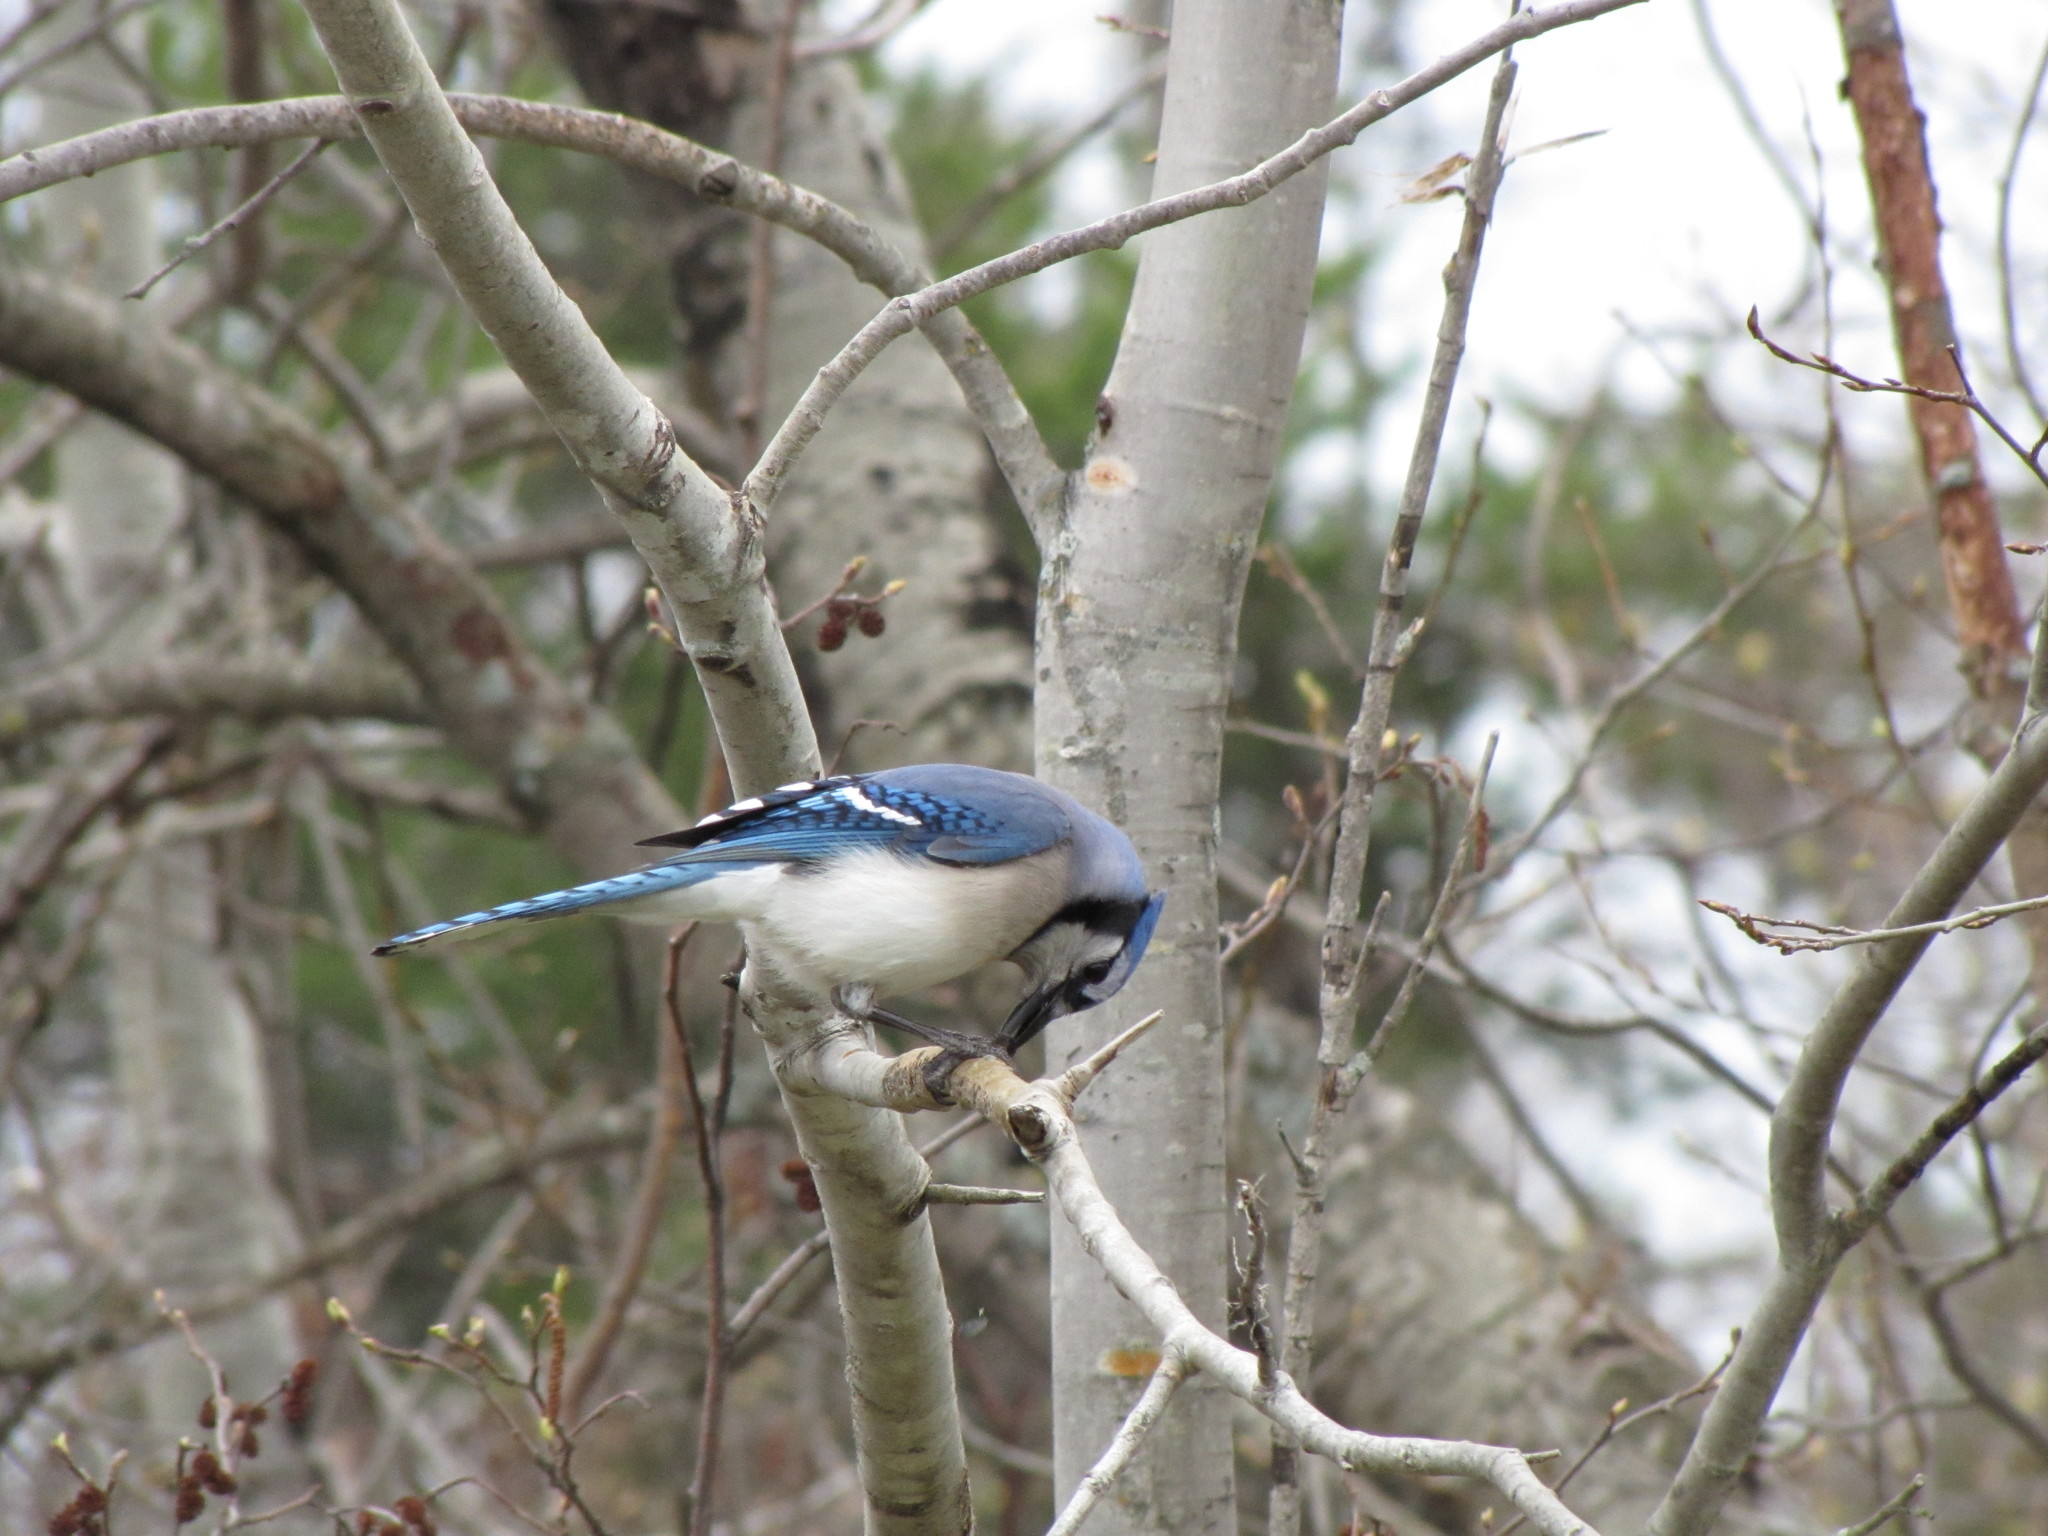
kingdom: Animalia
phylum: Chordata
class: Aves
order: Passeriformes
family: Corvidae
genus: Cyanocitta
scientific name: Cyanocitta cristata
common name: Blue jay
